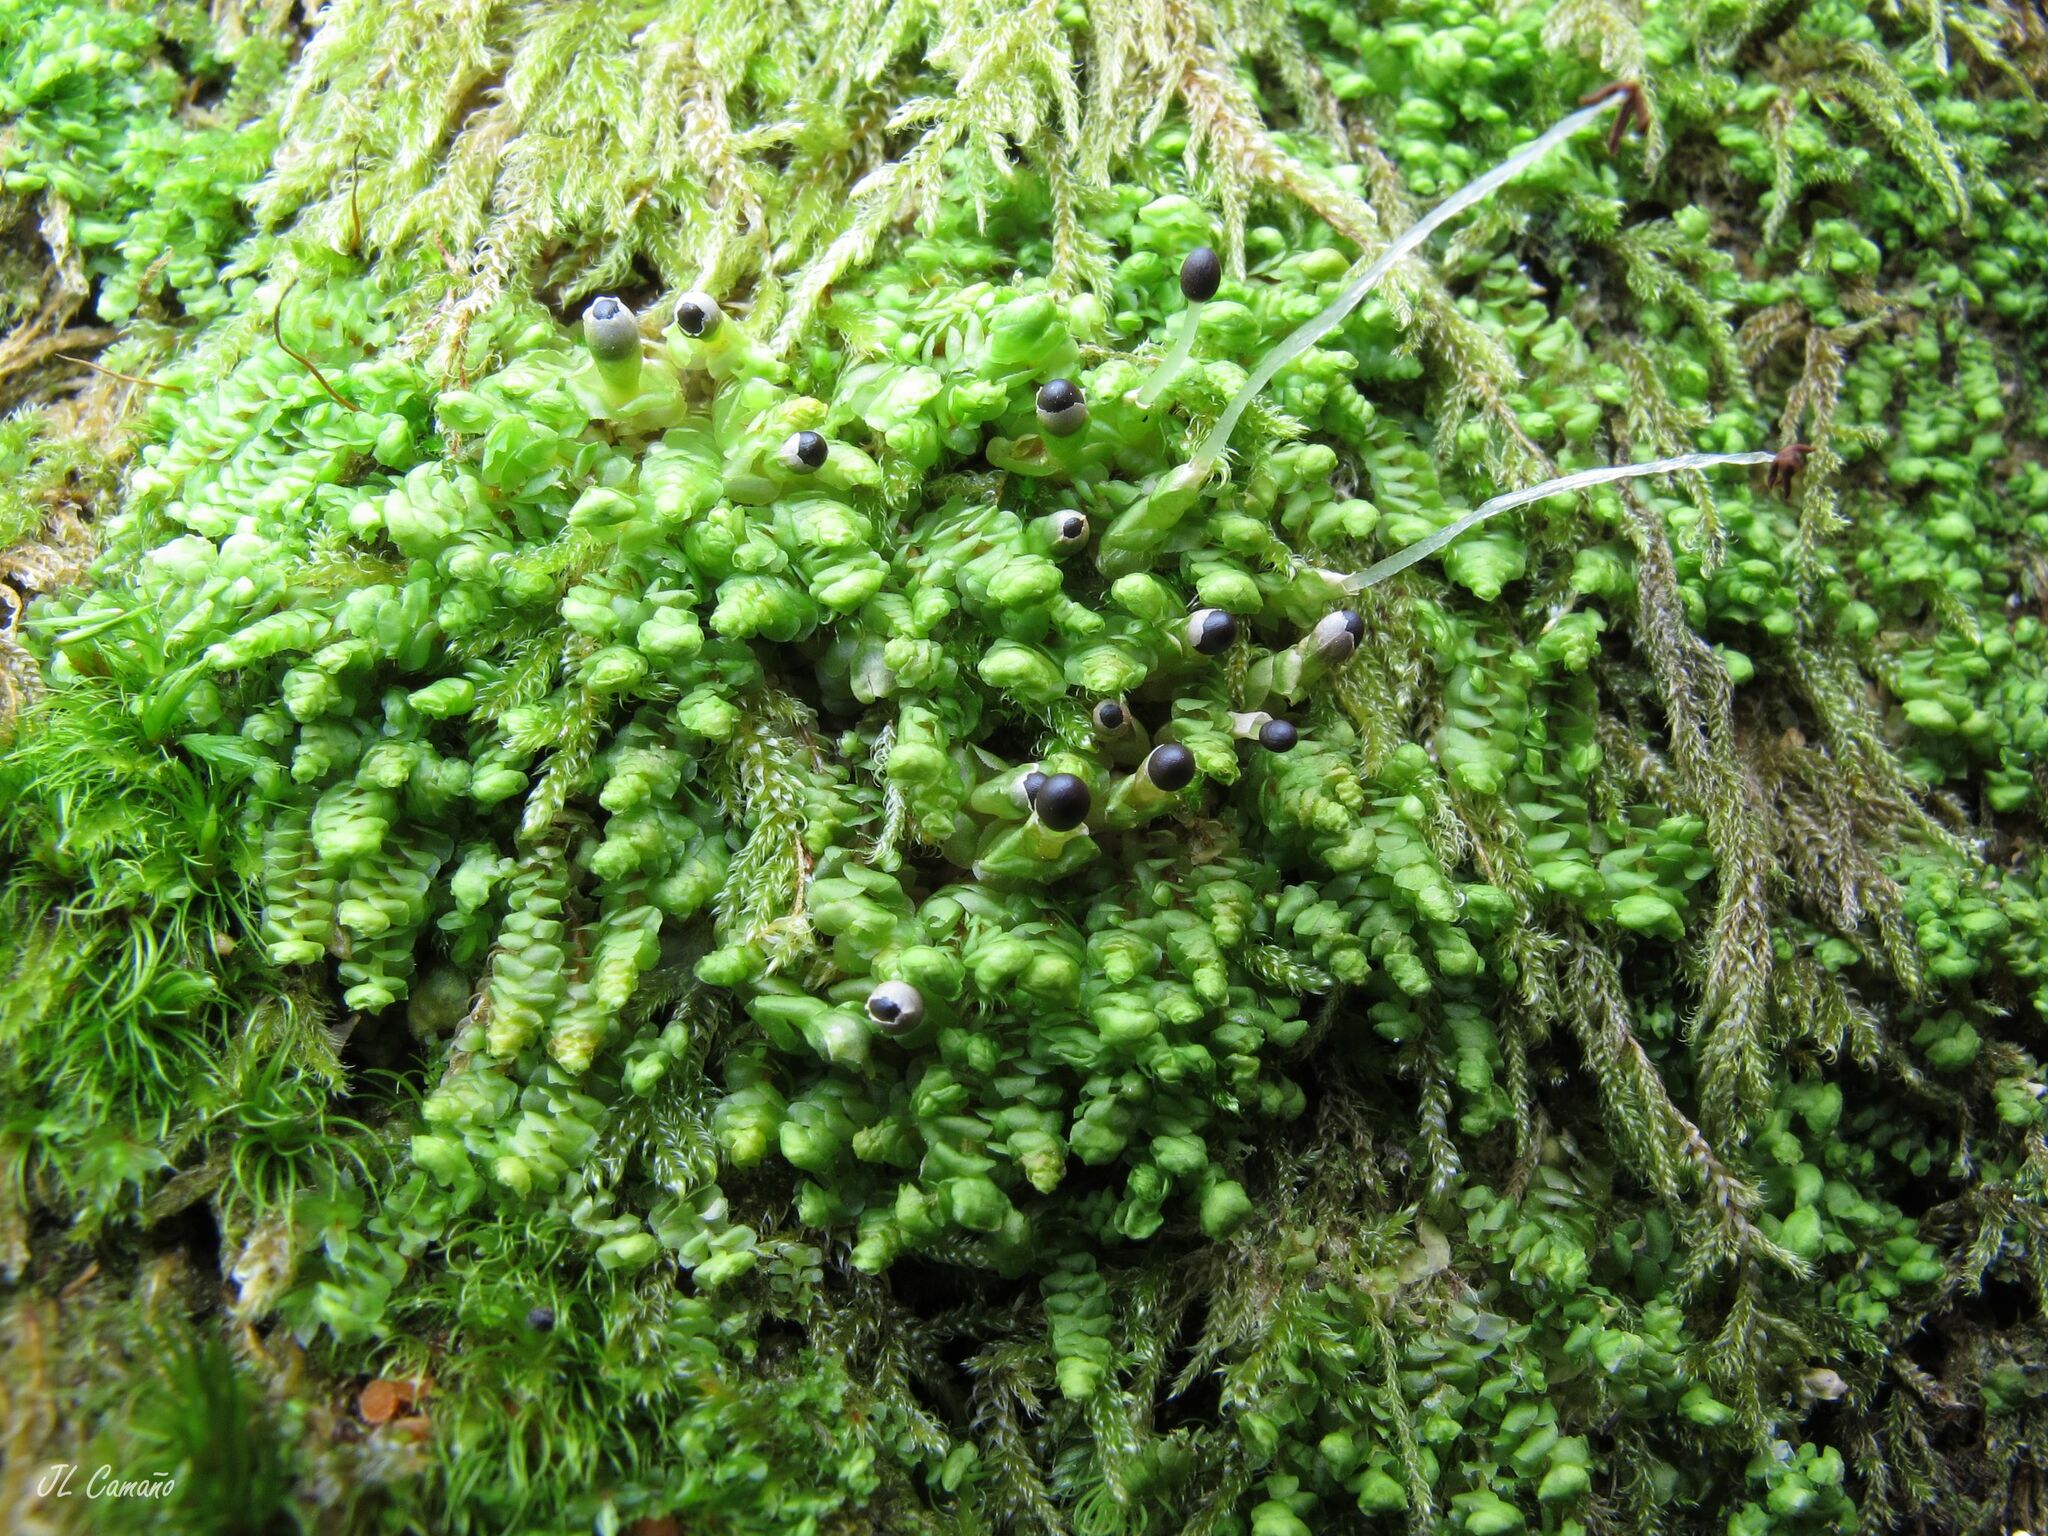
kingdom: Plantae
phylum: Marchantiophyta
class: Jungermanniopsida
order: Jungermanniales
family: Scapaniaceae
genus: Scapania
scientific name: Scapania compacta
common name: Thick-set earwort
